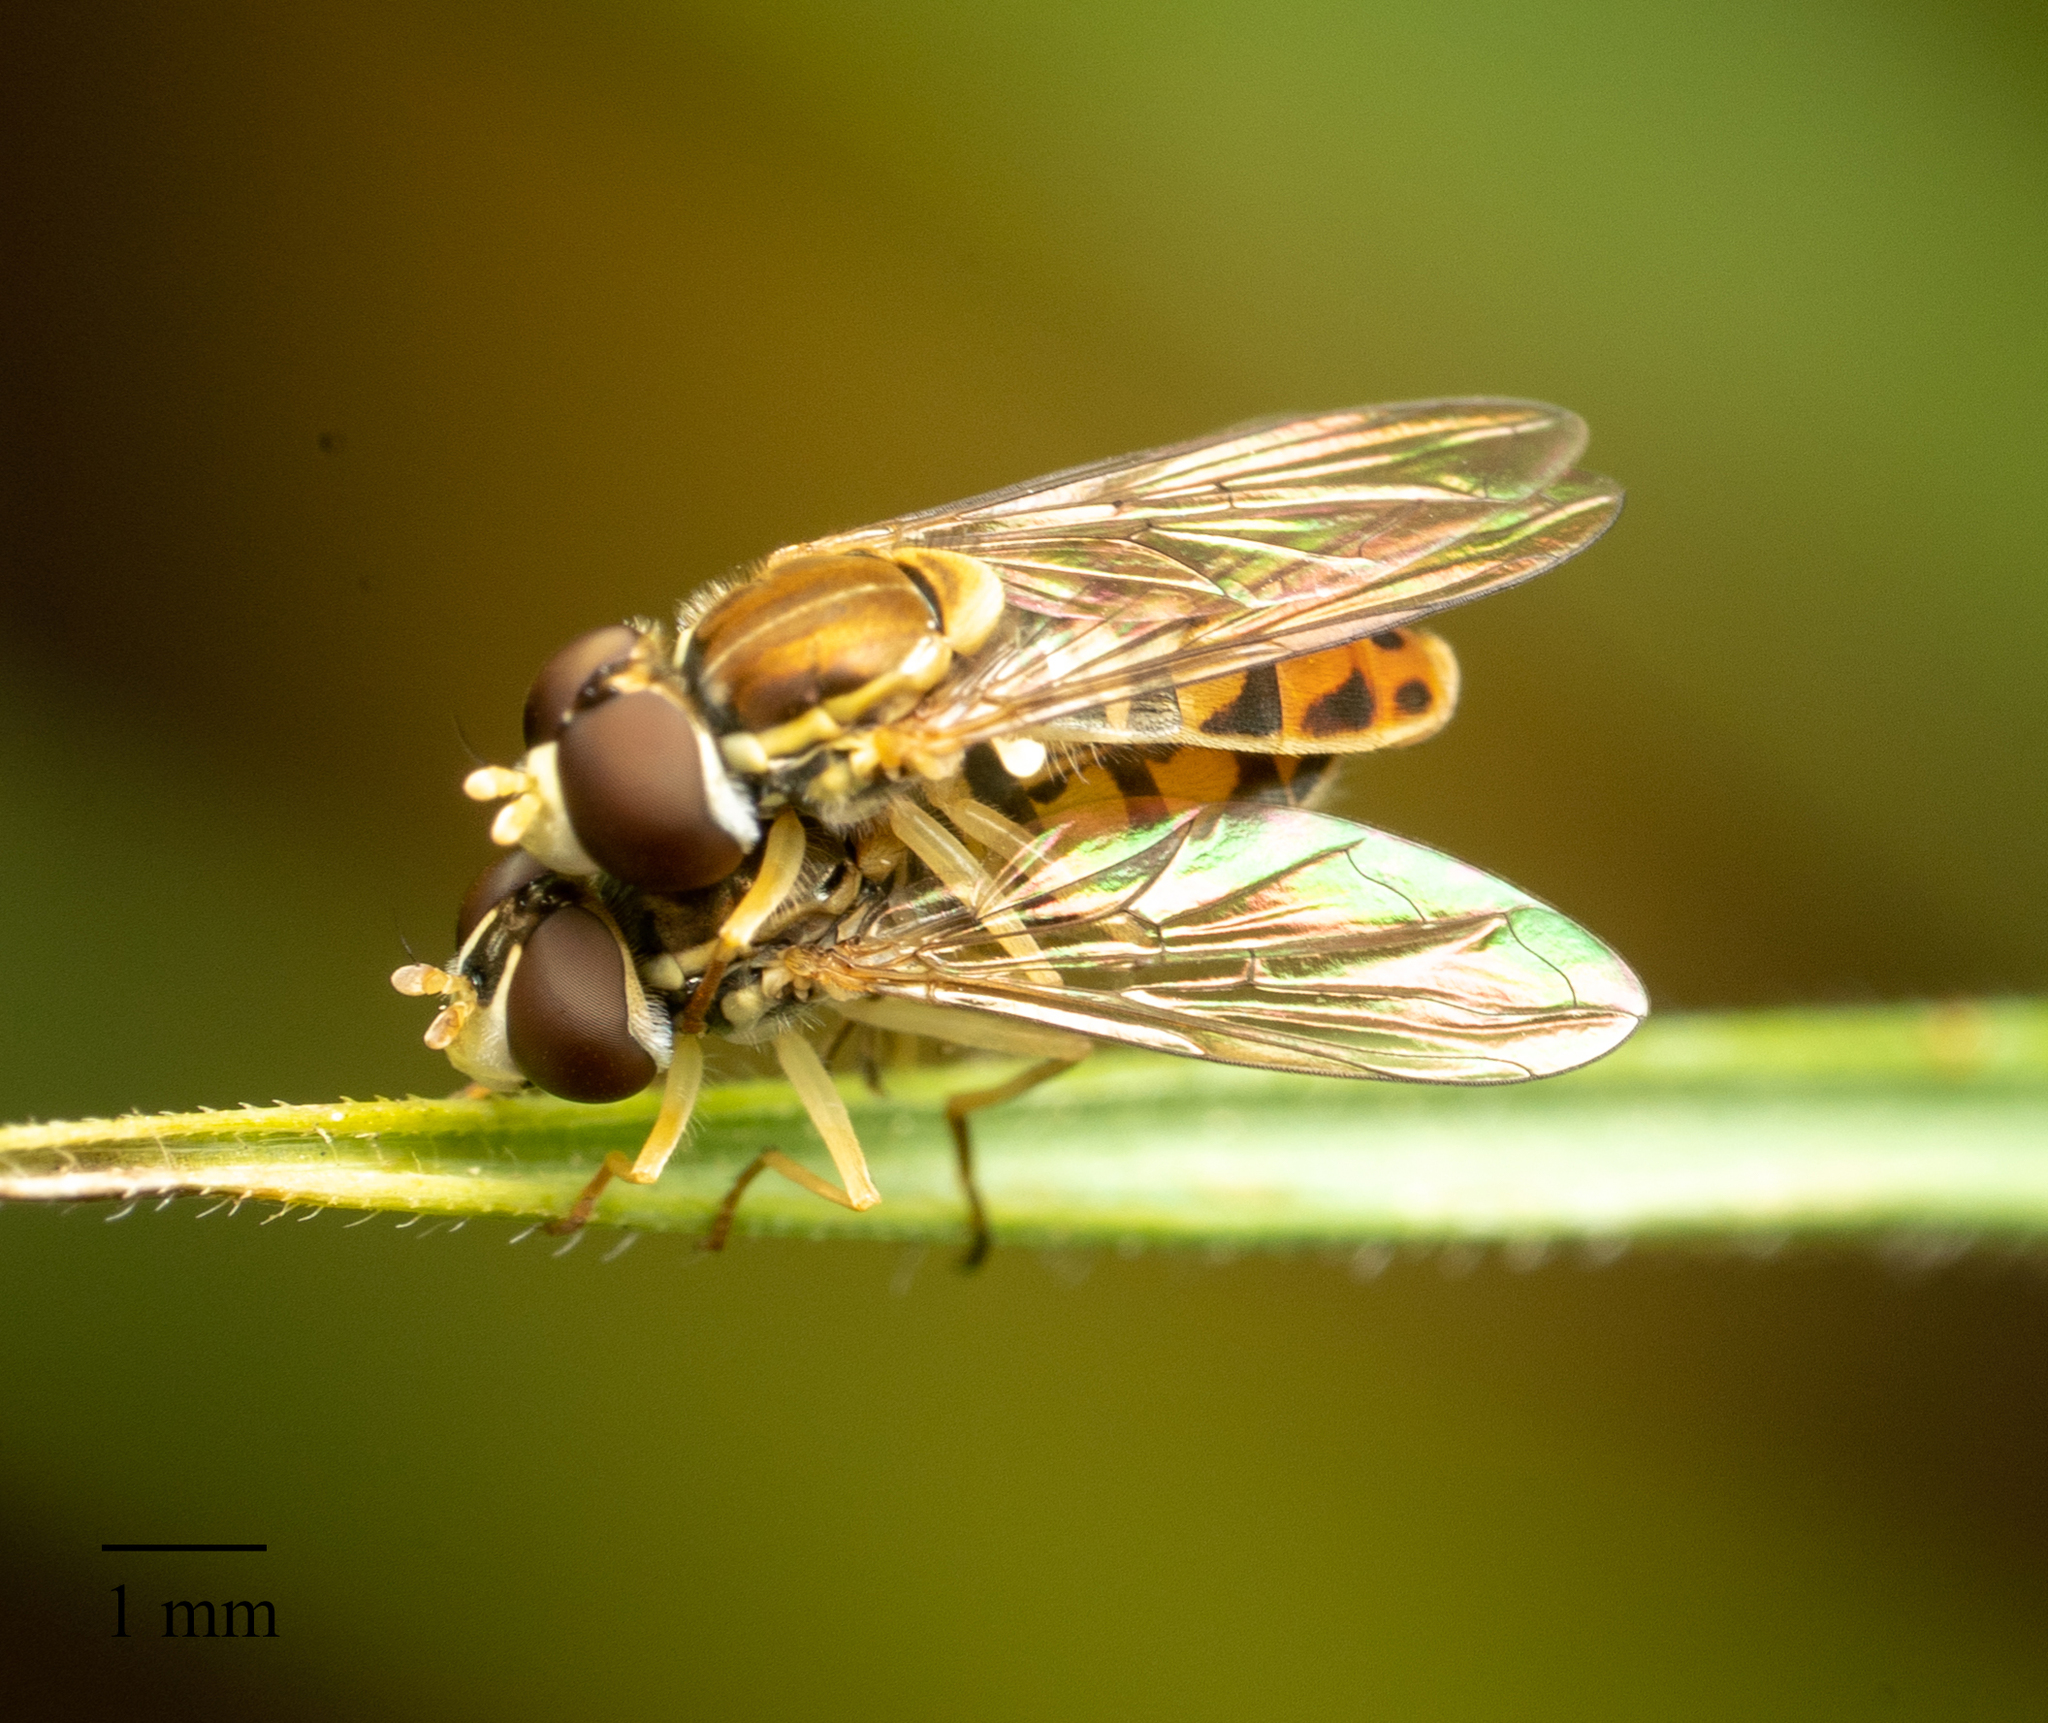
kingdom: Animalia
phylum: Arthropoda
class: Insecta
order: Diptera
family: Syrphidae
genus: Toxomerus
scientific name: Toxomerus marginatus
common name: Syrphid fly
